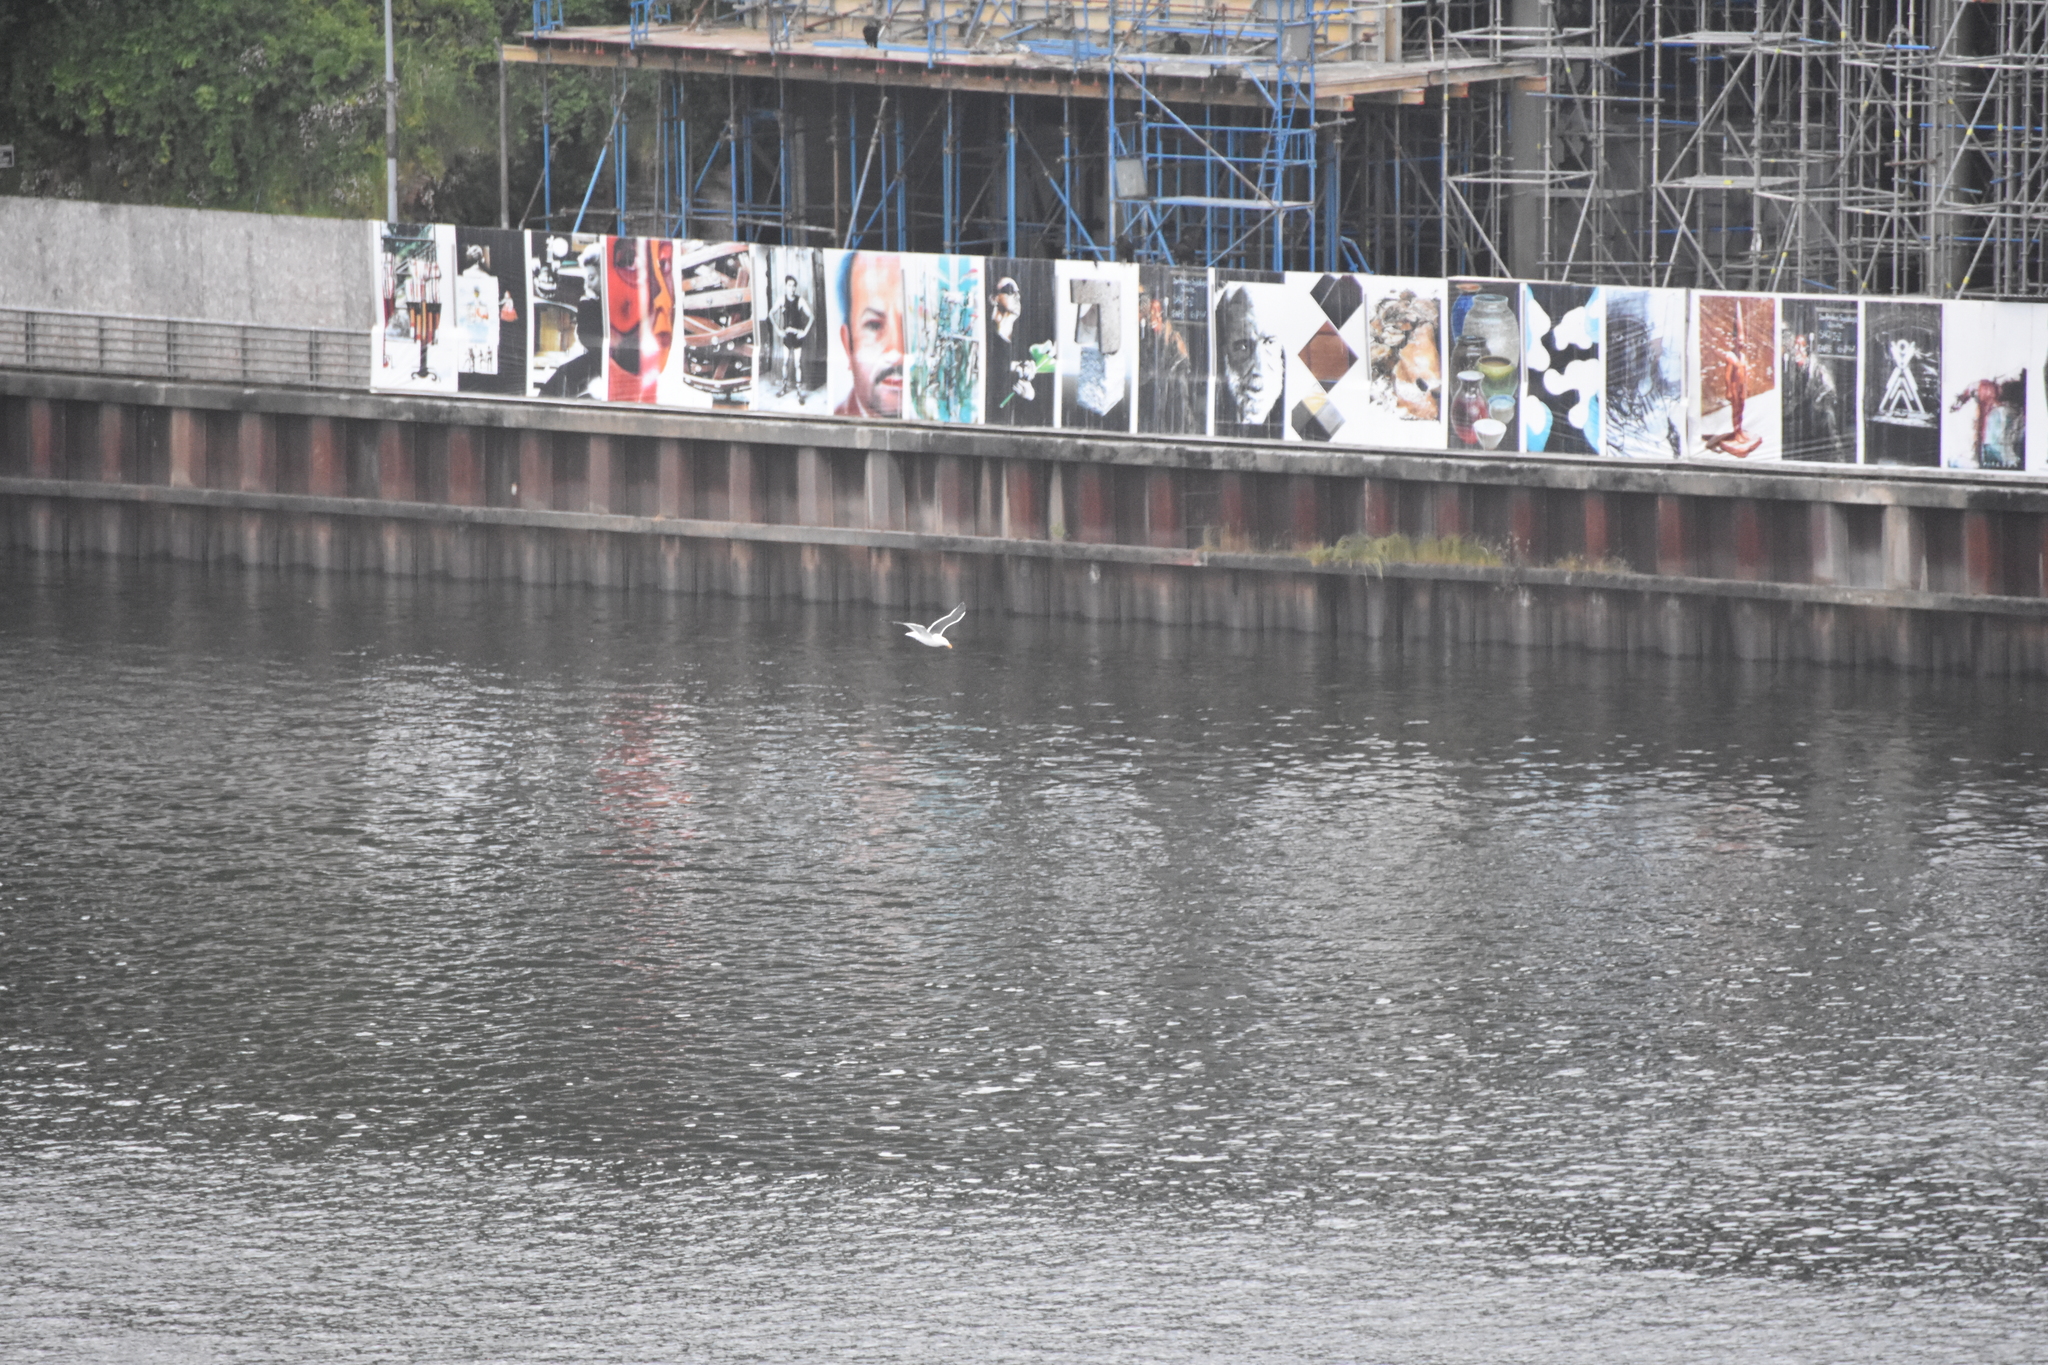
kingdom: Animalia
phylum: Chordata
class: Aves
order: Charadriiformes
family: Laridae
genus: Larus
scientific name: Larus dominicanus
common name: Kelp gull
